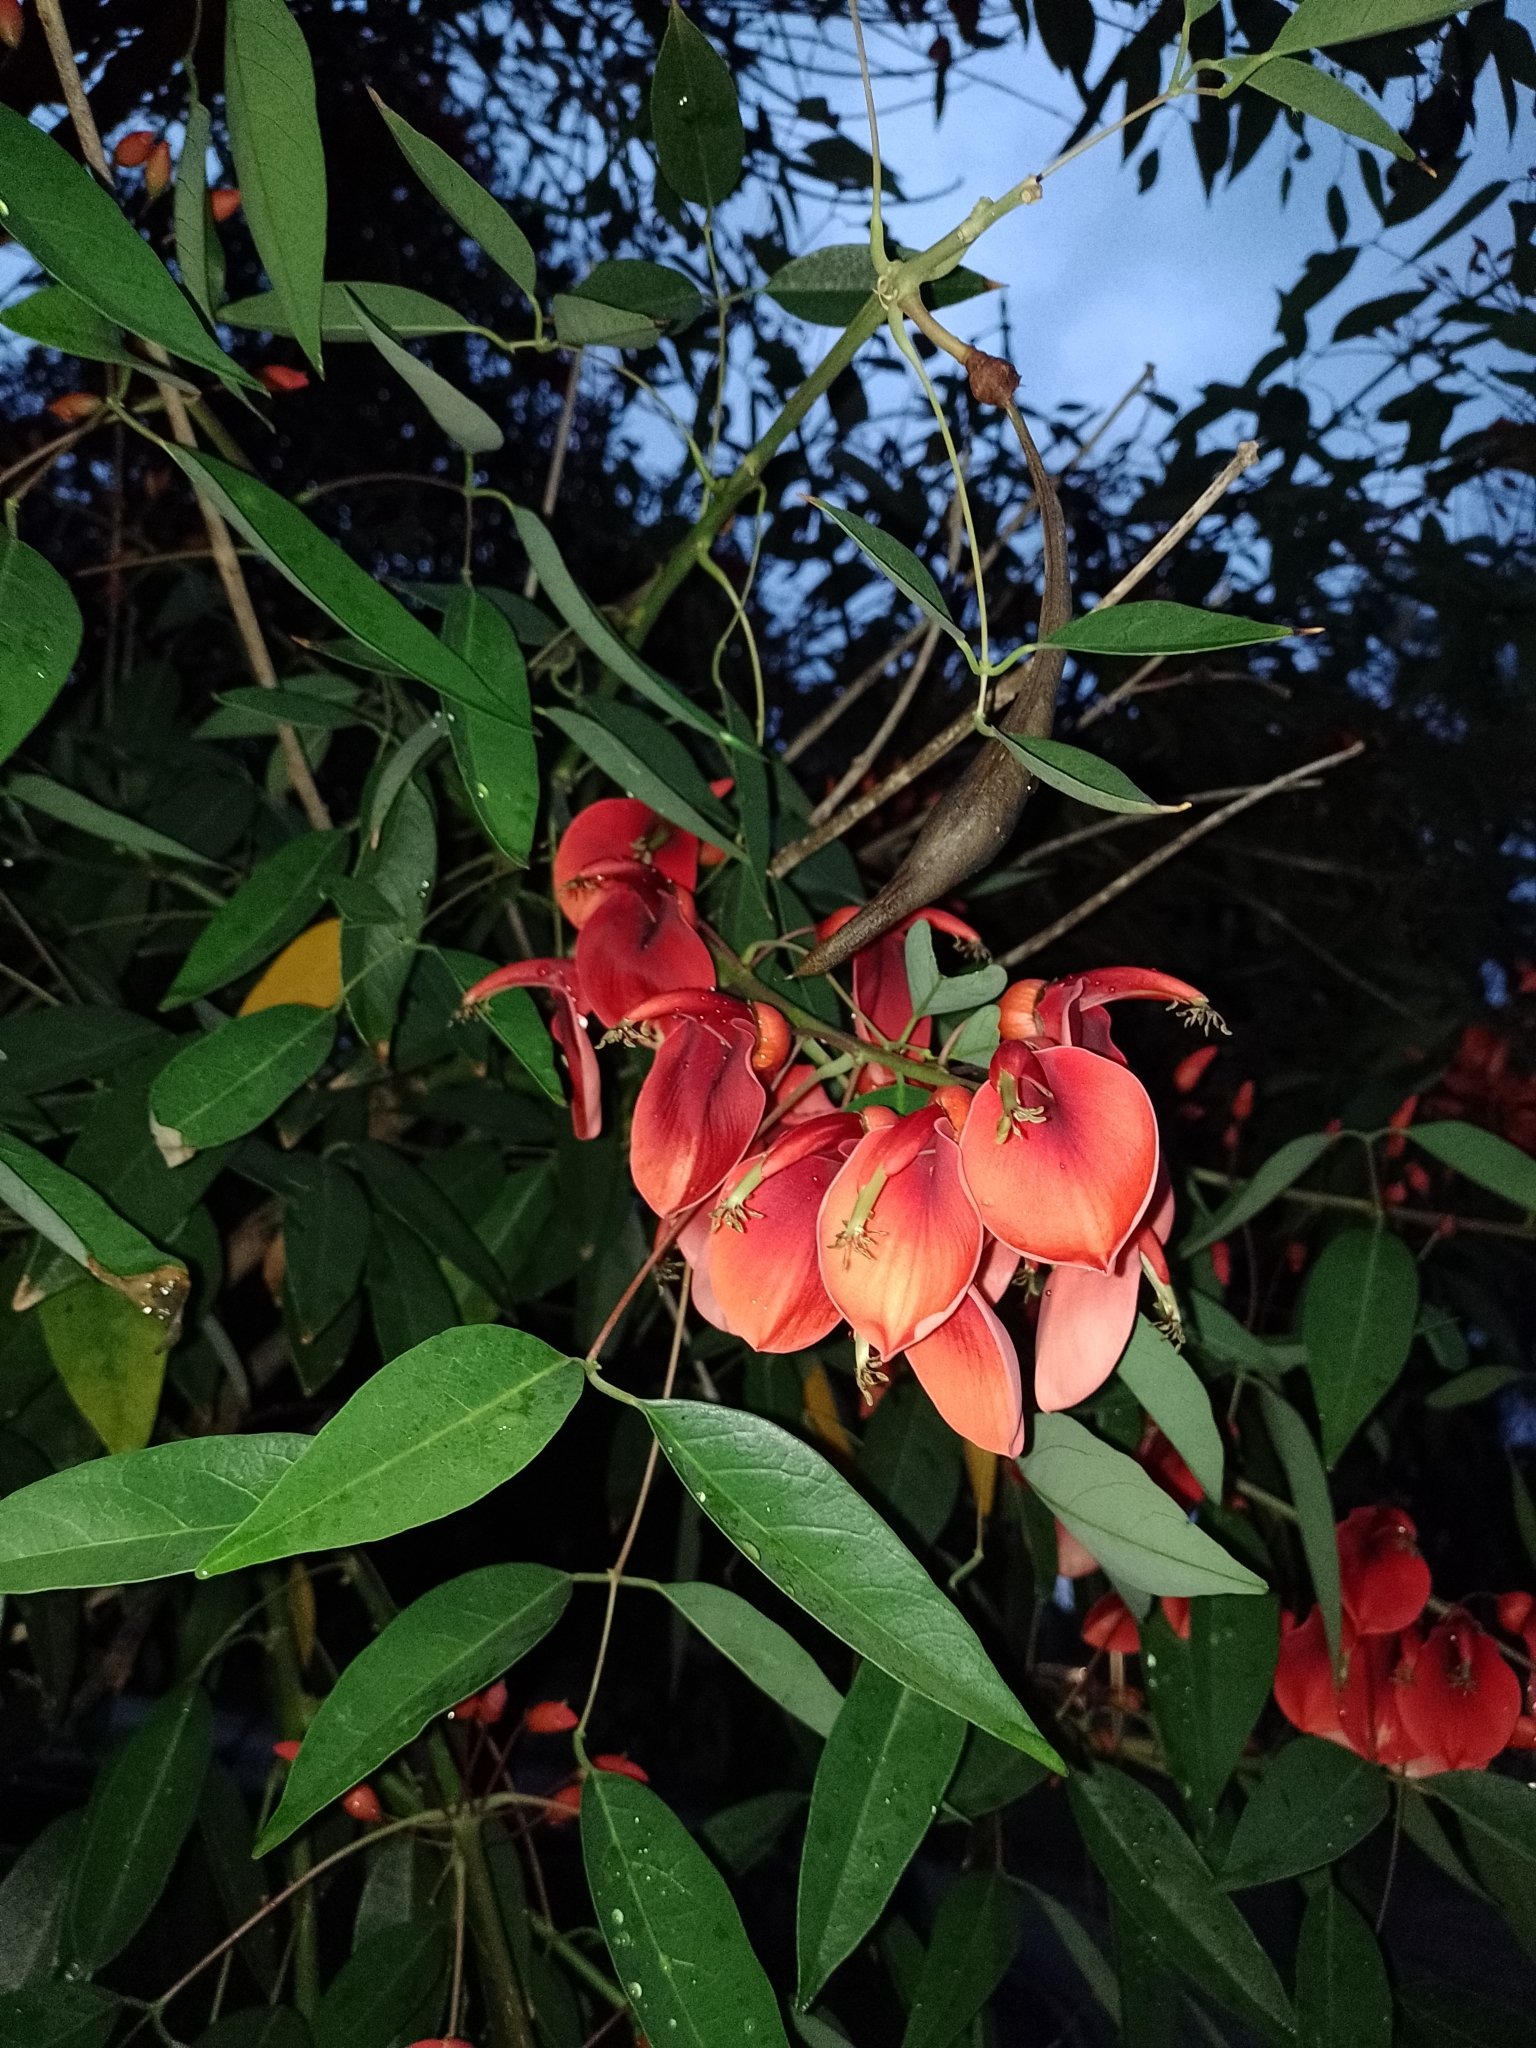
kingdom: Plantae
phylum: Tracheophyta
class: Magnoliopsida
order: Fabales
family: Fabaceae
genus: Erythrina
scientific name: Erythrina crista-galli
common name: Cockspur coral tree
